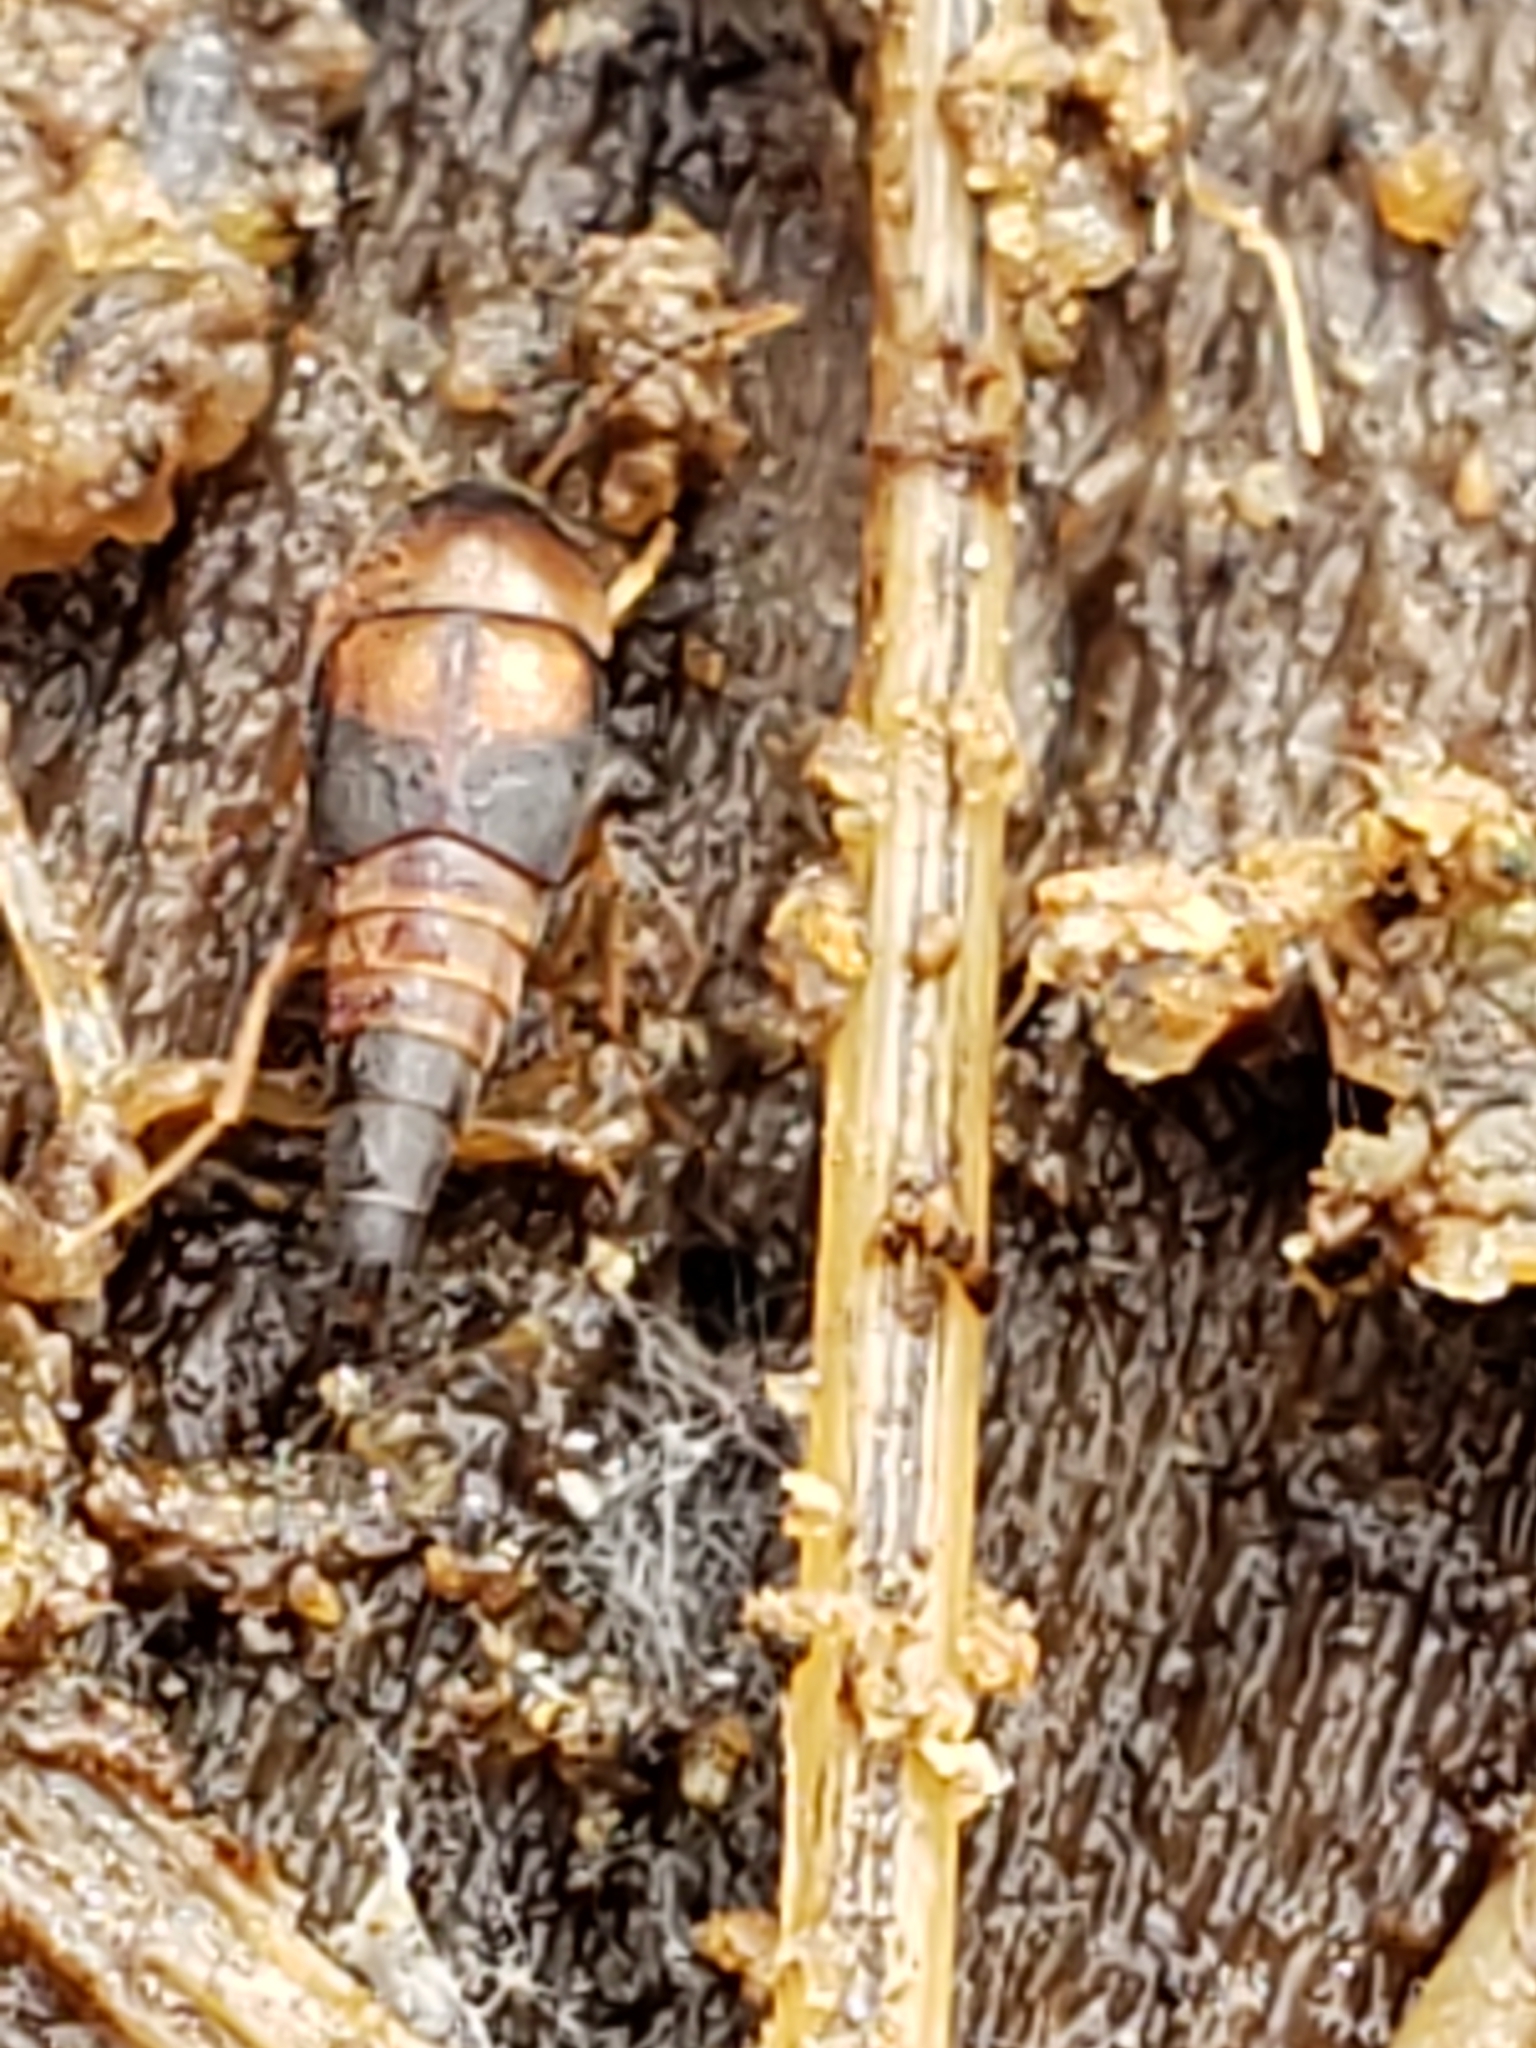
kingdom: Animalia
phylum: Arthropoda
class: Insecta
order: Coleoptera
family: Staphylinidae
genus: Sepedophilus
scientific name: Sepedophilus littoreus
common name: Staph beetle
